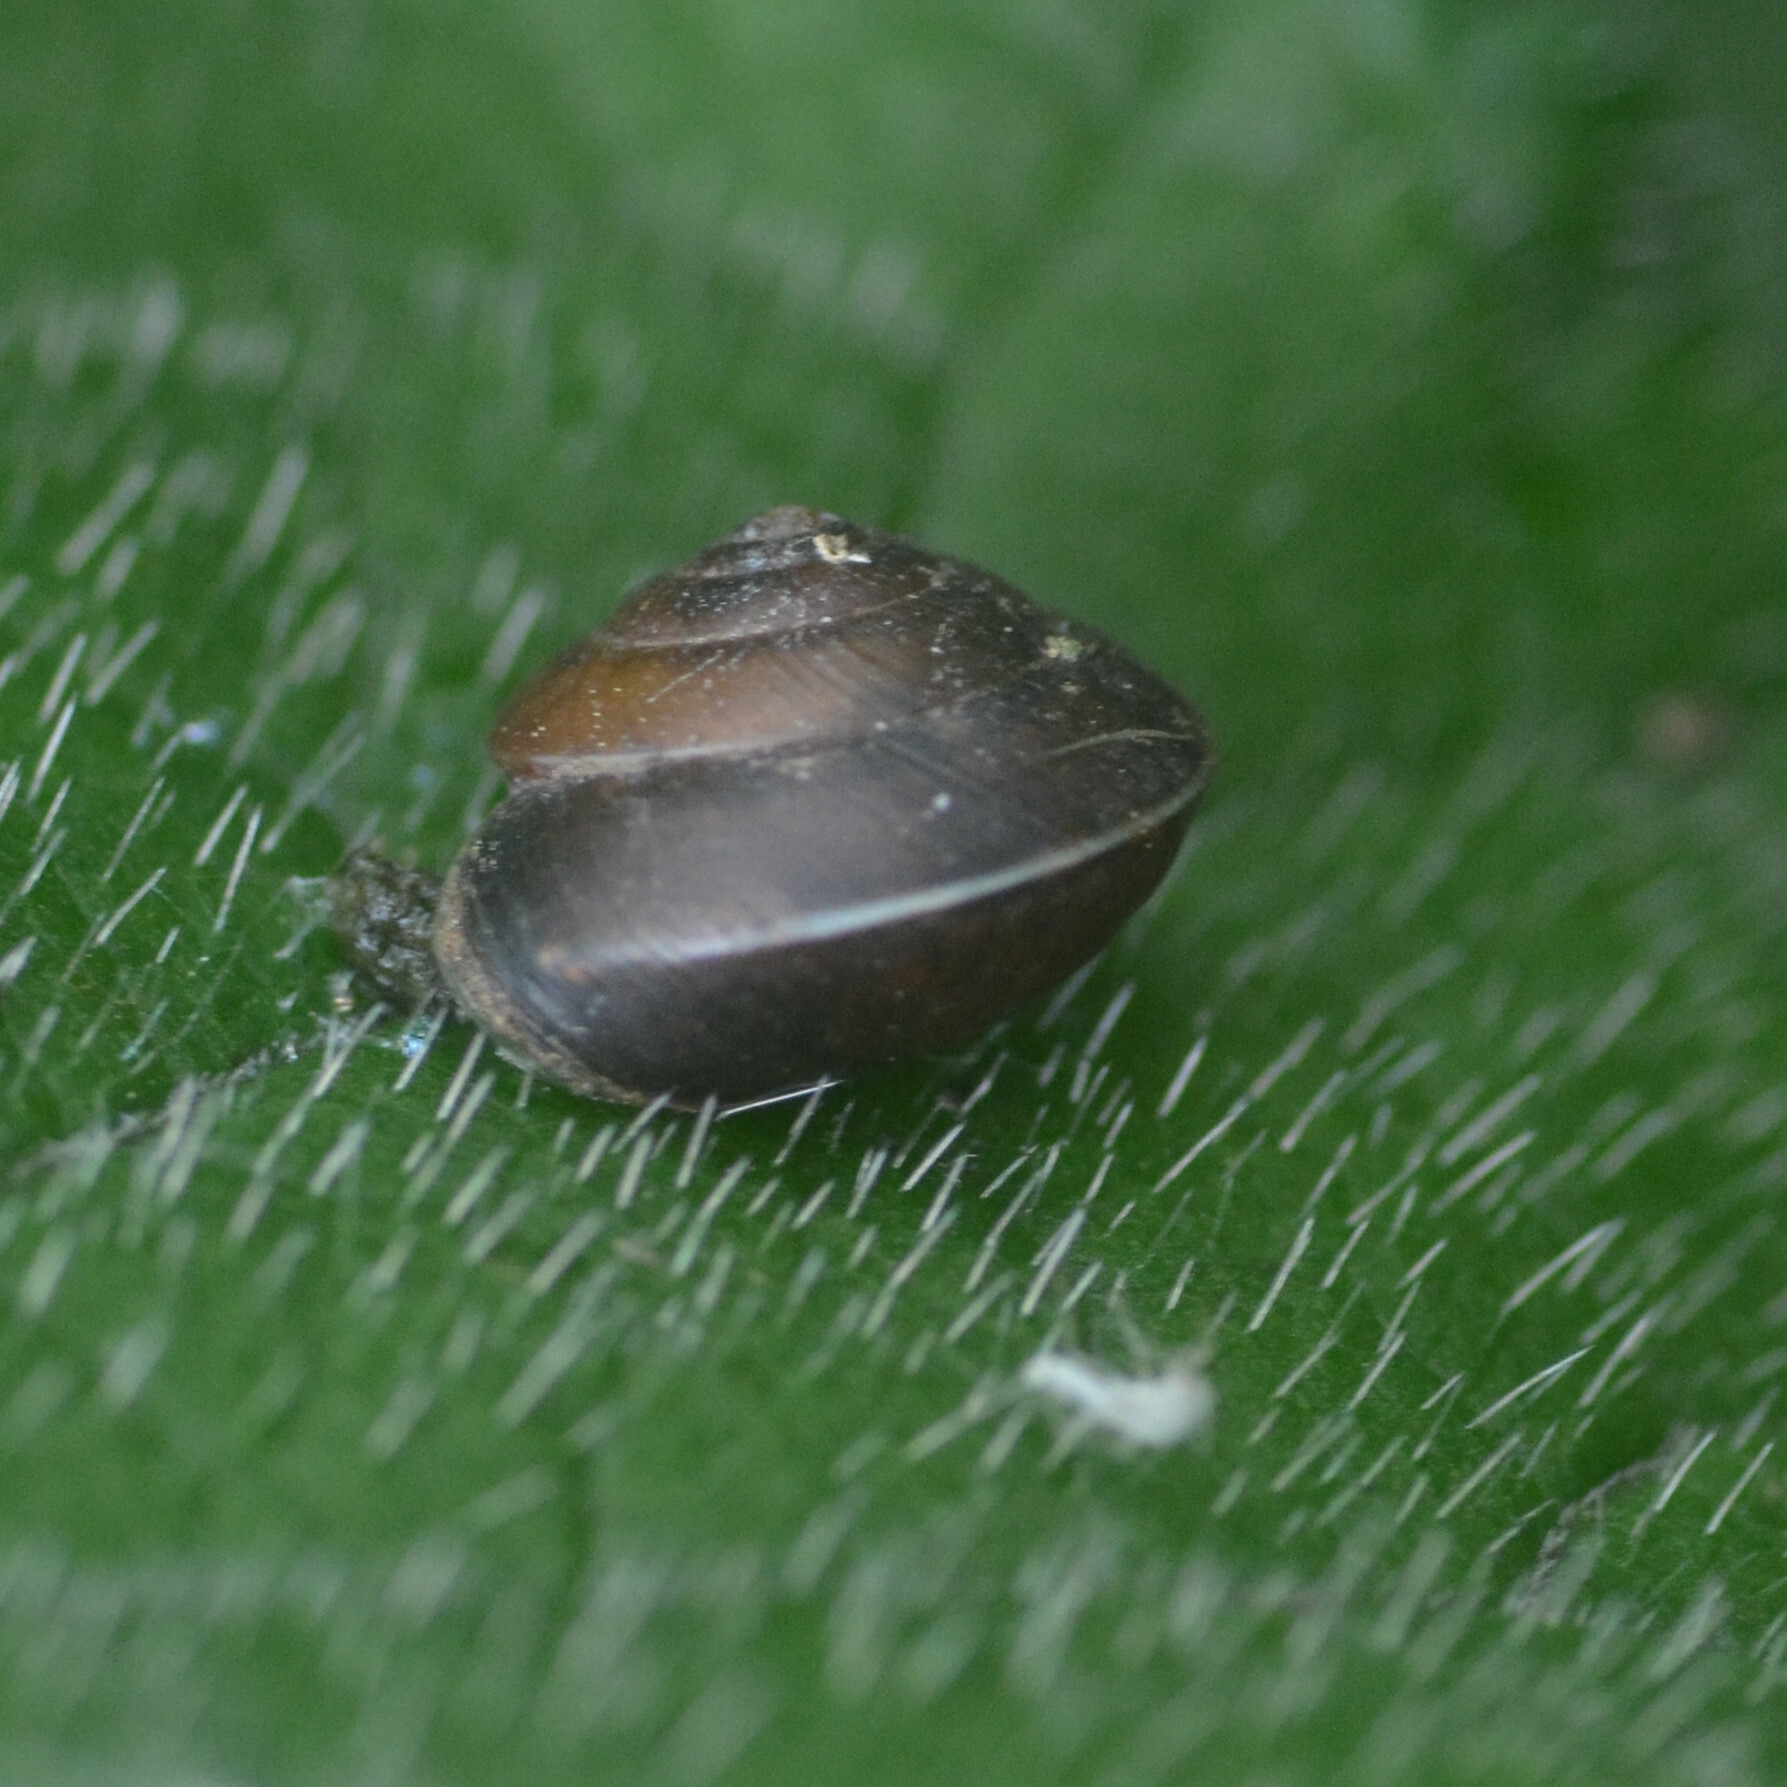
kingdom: Animalia
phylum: Mollusca
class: Gastropoda
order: Stylommatophora
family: Hygromiidae
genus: Hygromia
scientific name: Hygromia cinctella
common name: Girdled snail
